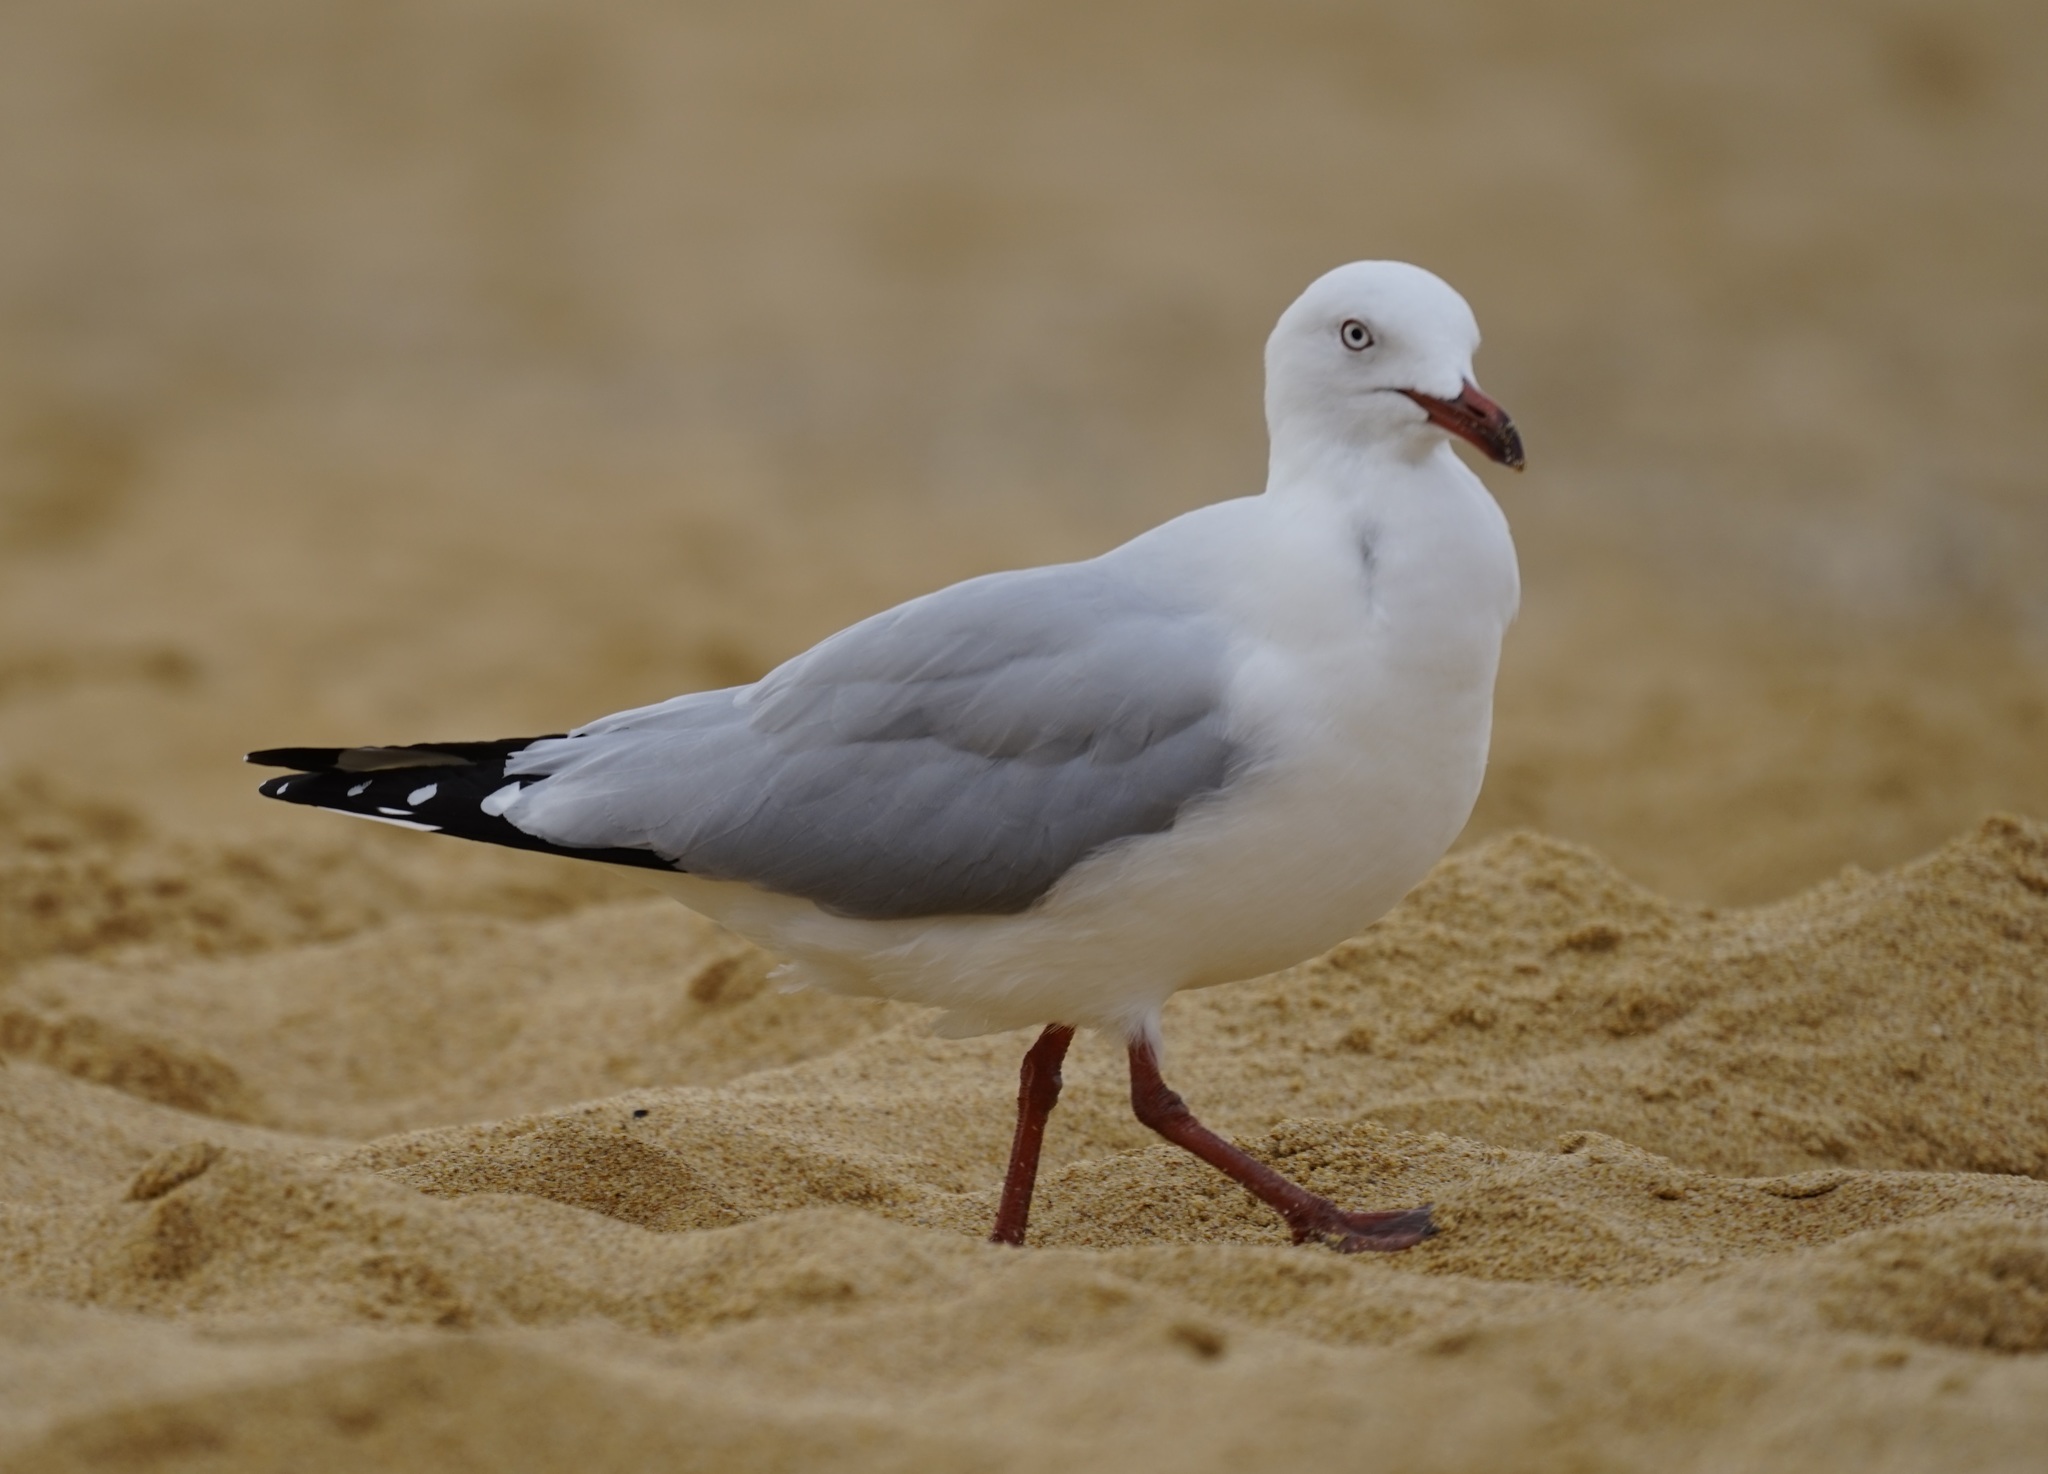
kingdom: Animalia
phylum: Chordata
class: Aves
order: Charadriiformes
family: Laridae
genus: Chroicocephalus
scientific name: Chroicocephalus novaehollandiae
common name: Silver gull
